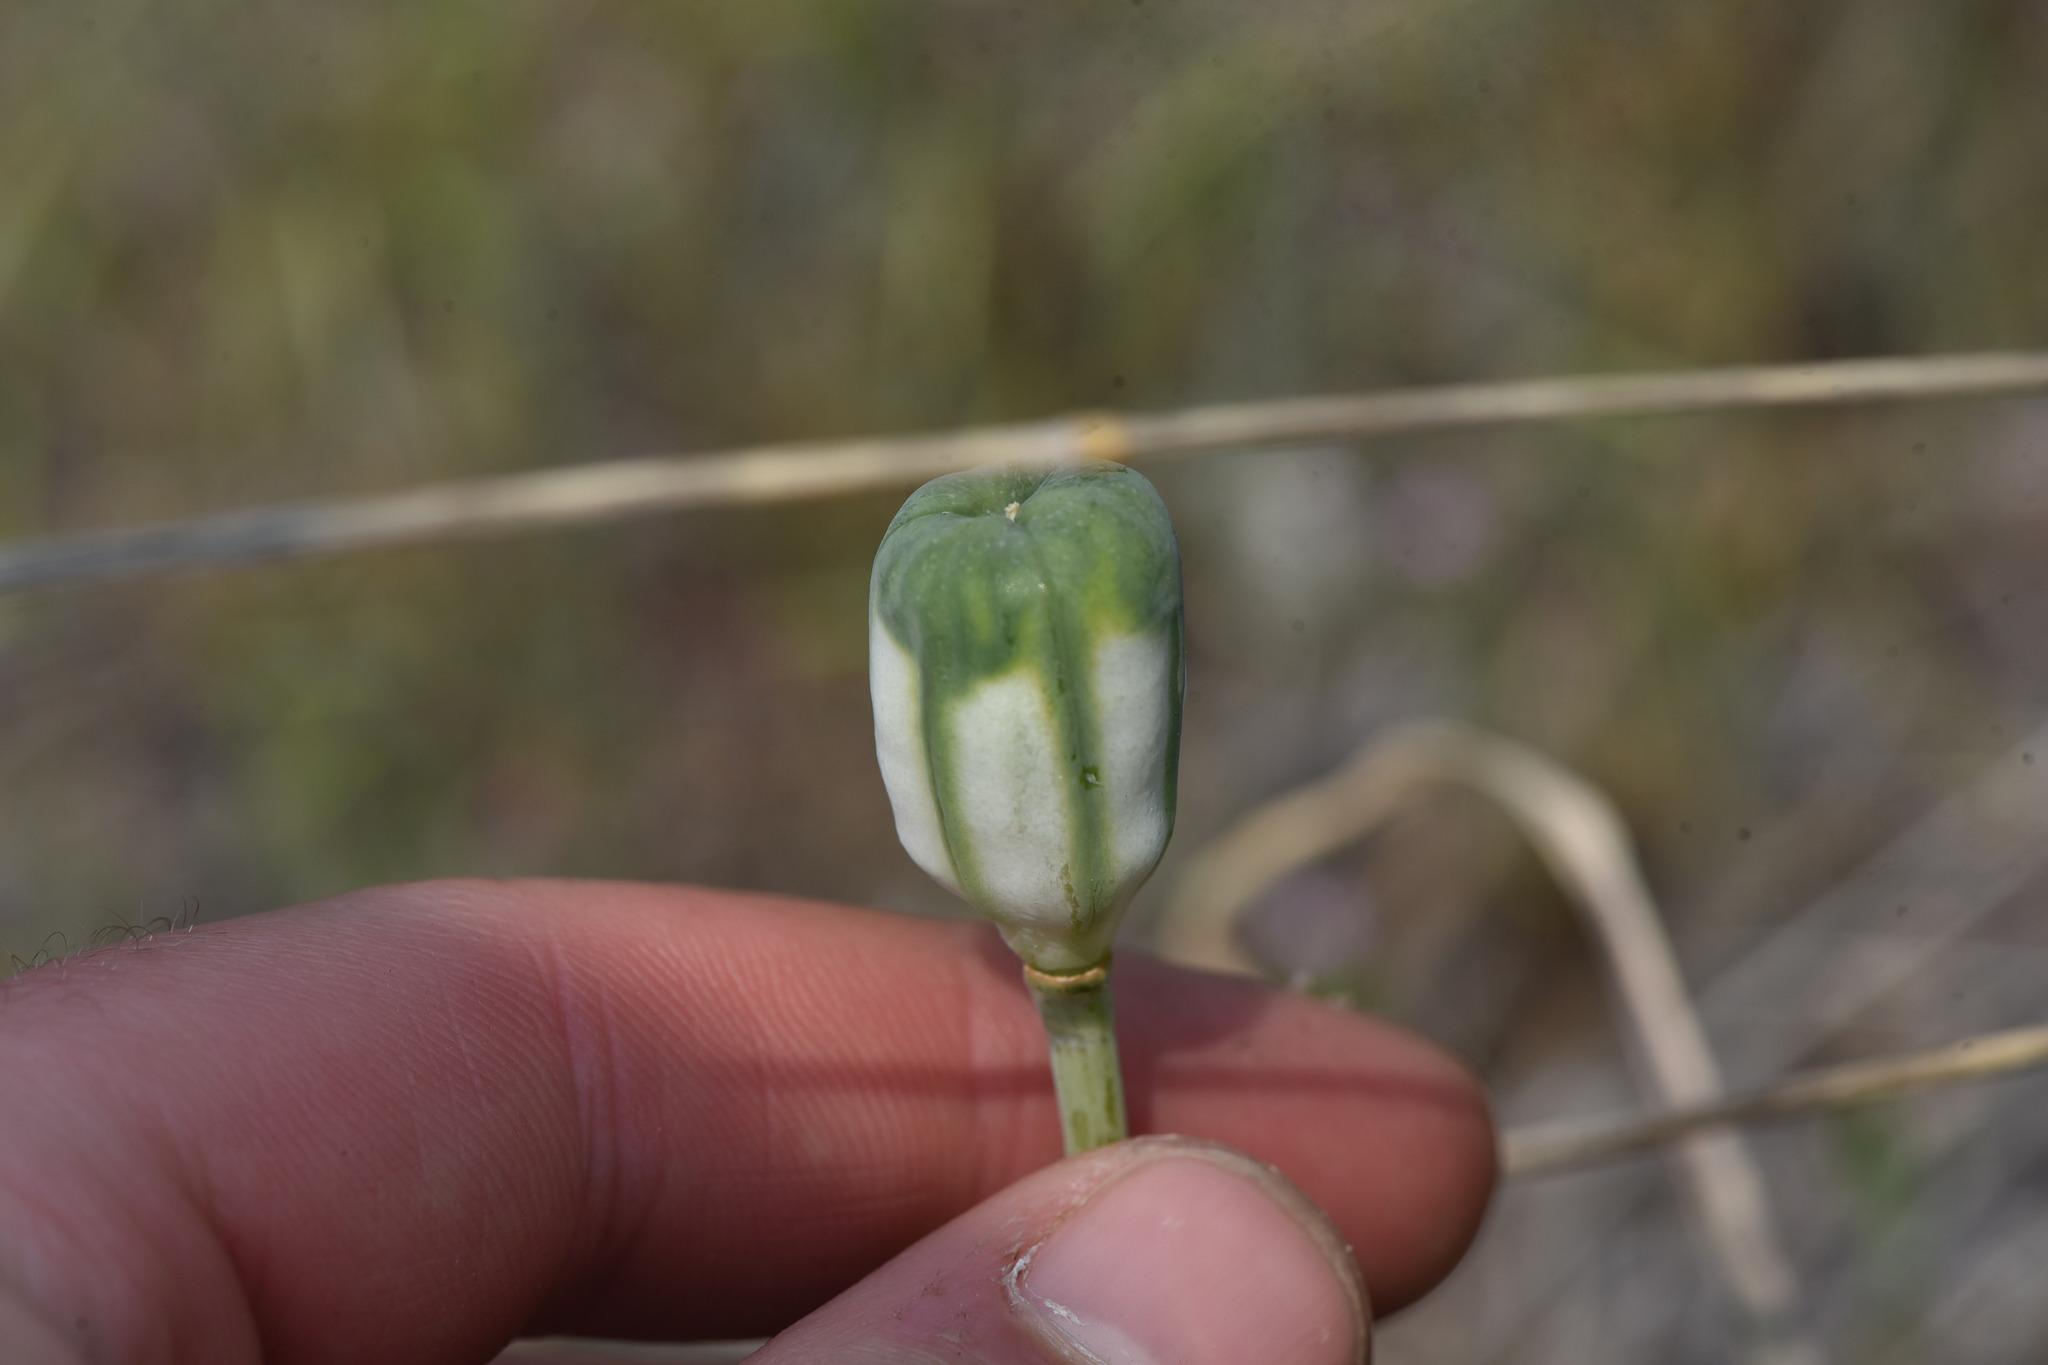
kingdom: Plantae
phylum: Tracheophyta
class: Liliopsida
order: Liliales
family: Liliaceae
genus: Fritillaria
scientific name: Fritillaria pudica
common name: Yellow fritillary
